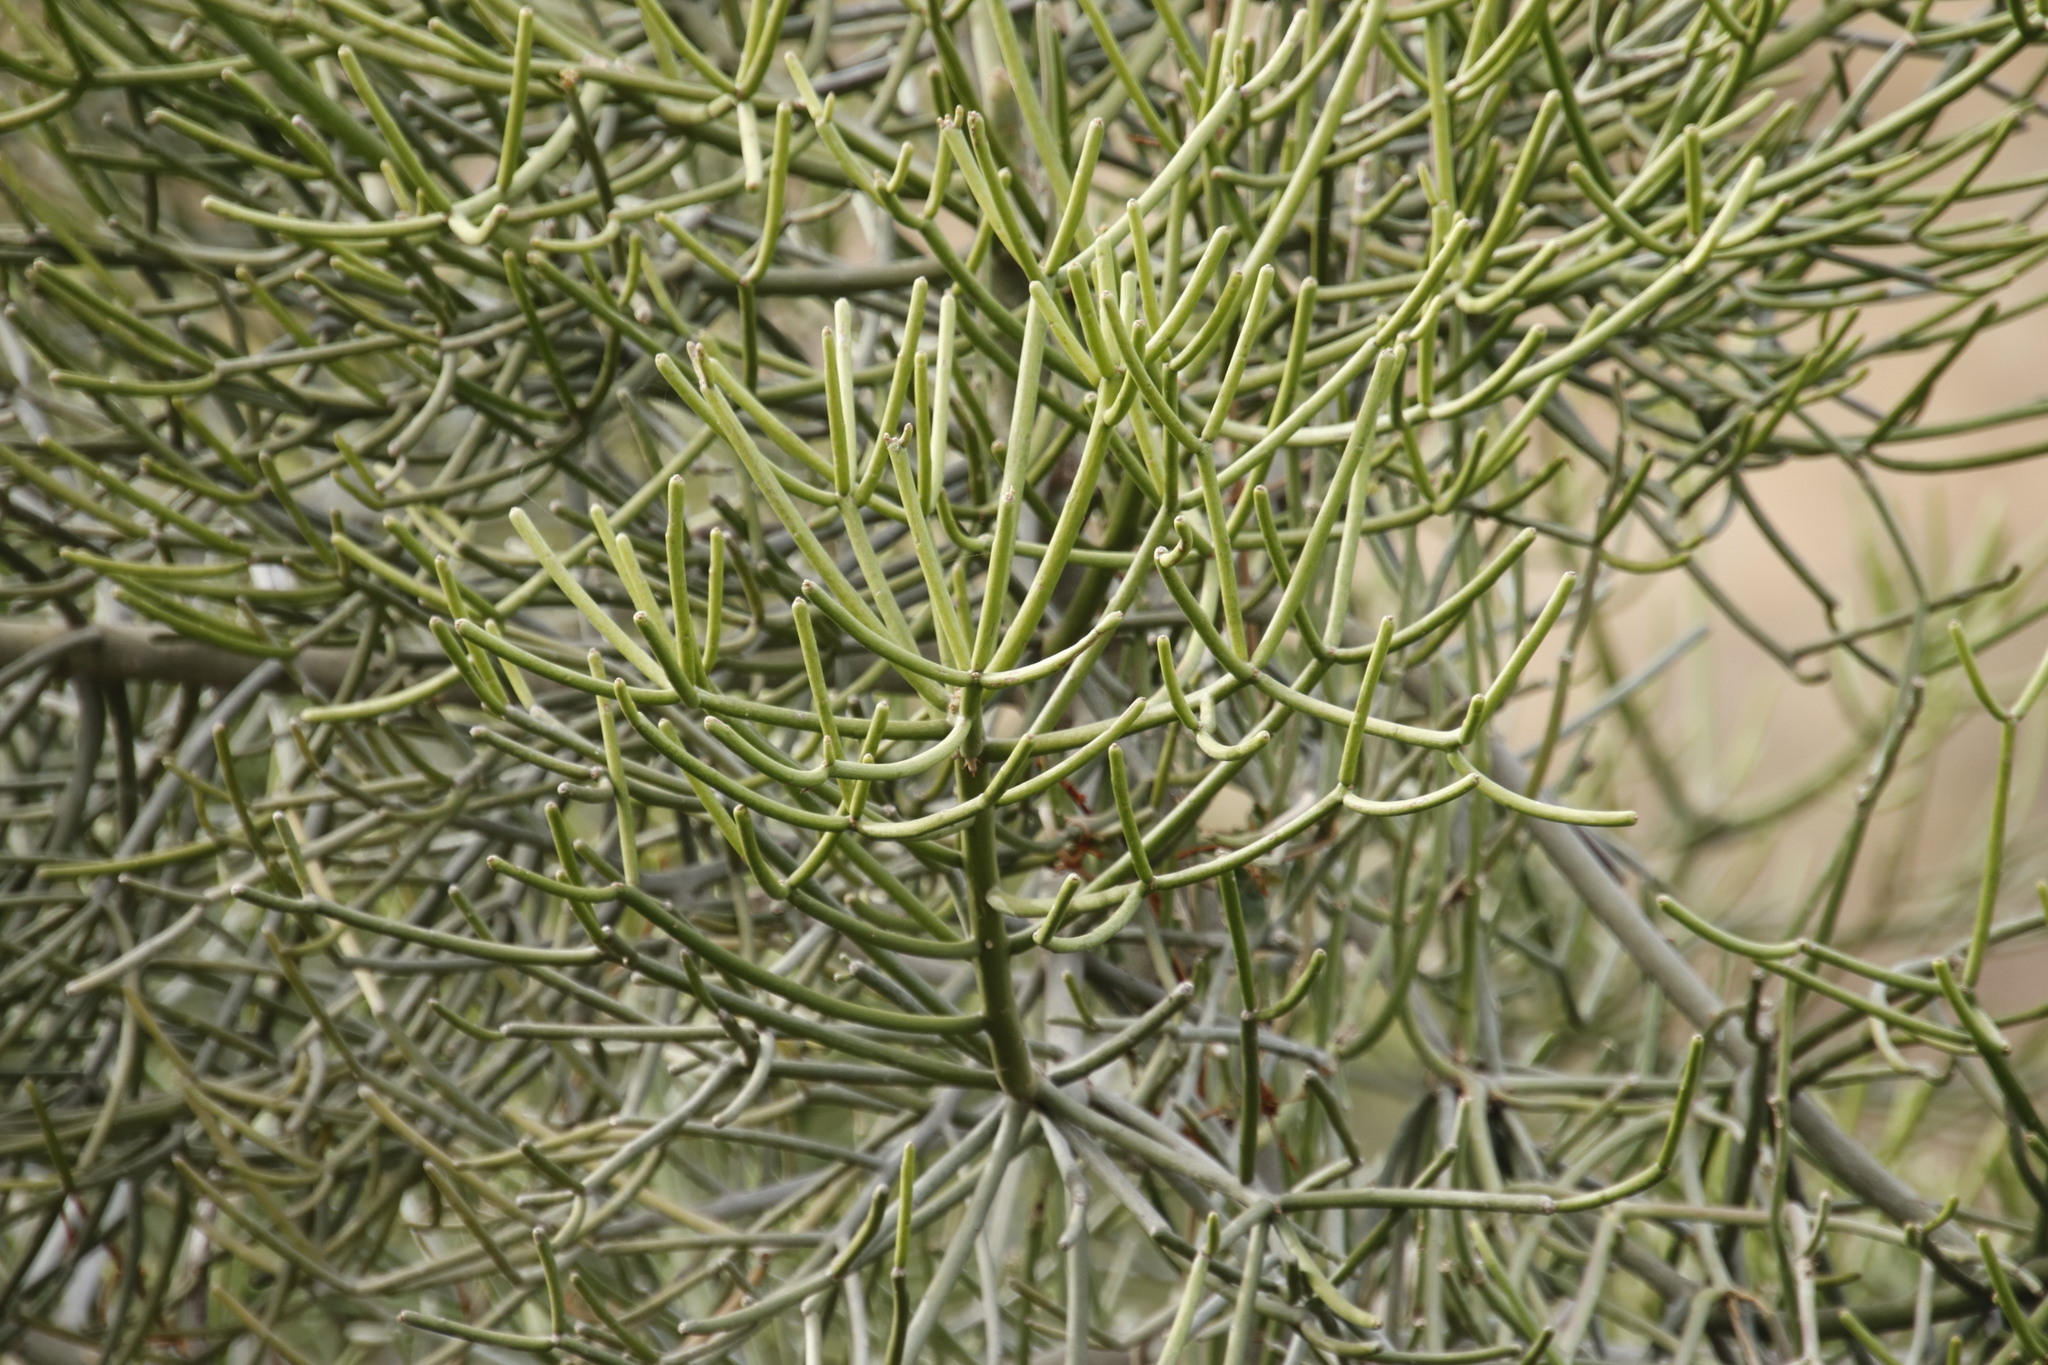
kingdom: Plantae
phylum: Tracheophyta
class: Magnoliopsida
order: Malpighiales
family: Euphorbiaceae
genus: Euphorbia
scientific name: Euphorbia tirucalli
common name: Indiantree spurge
